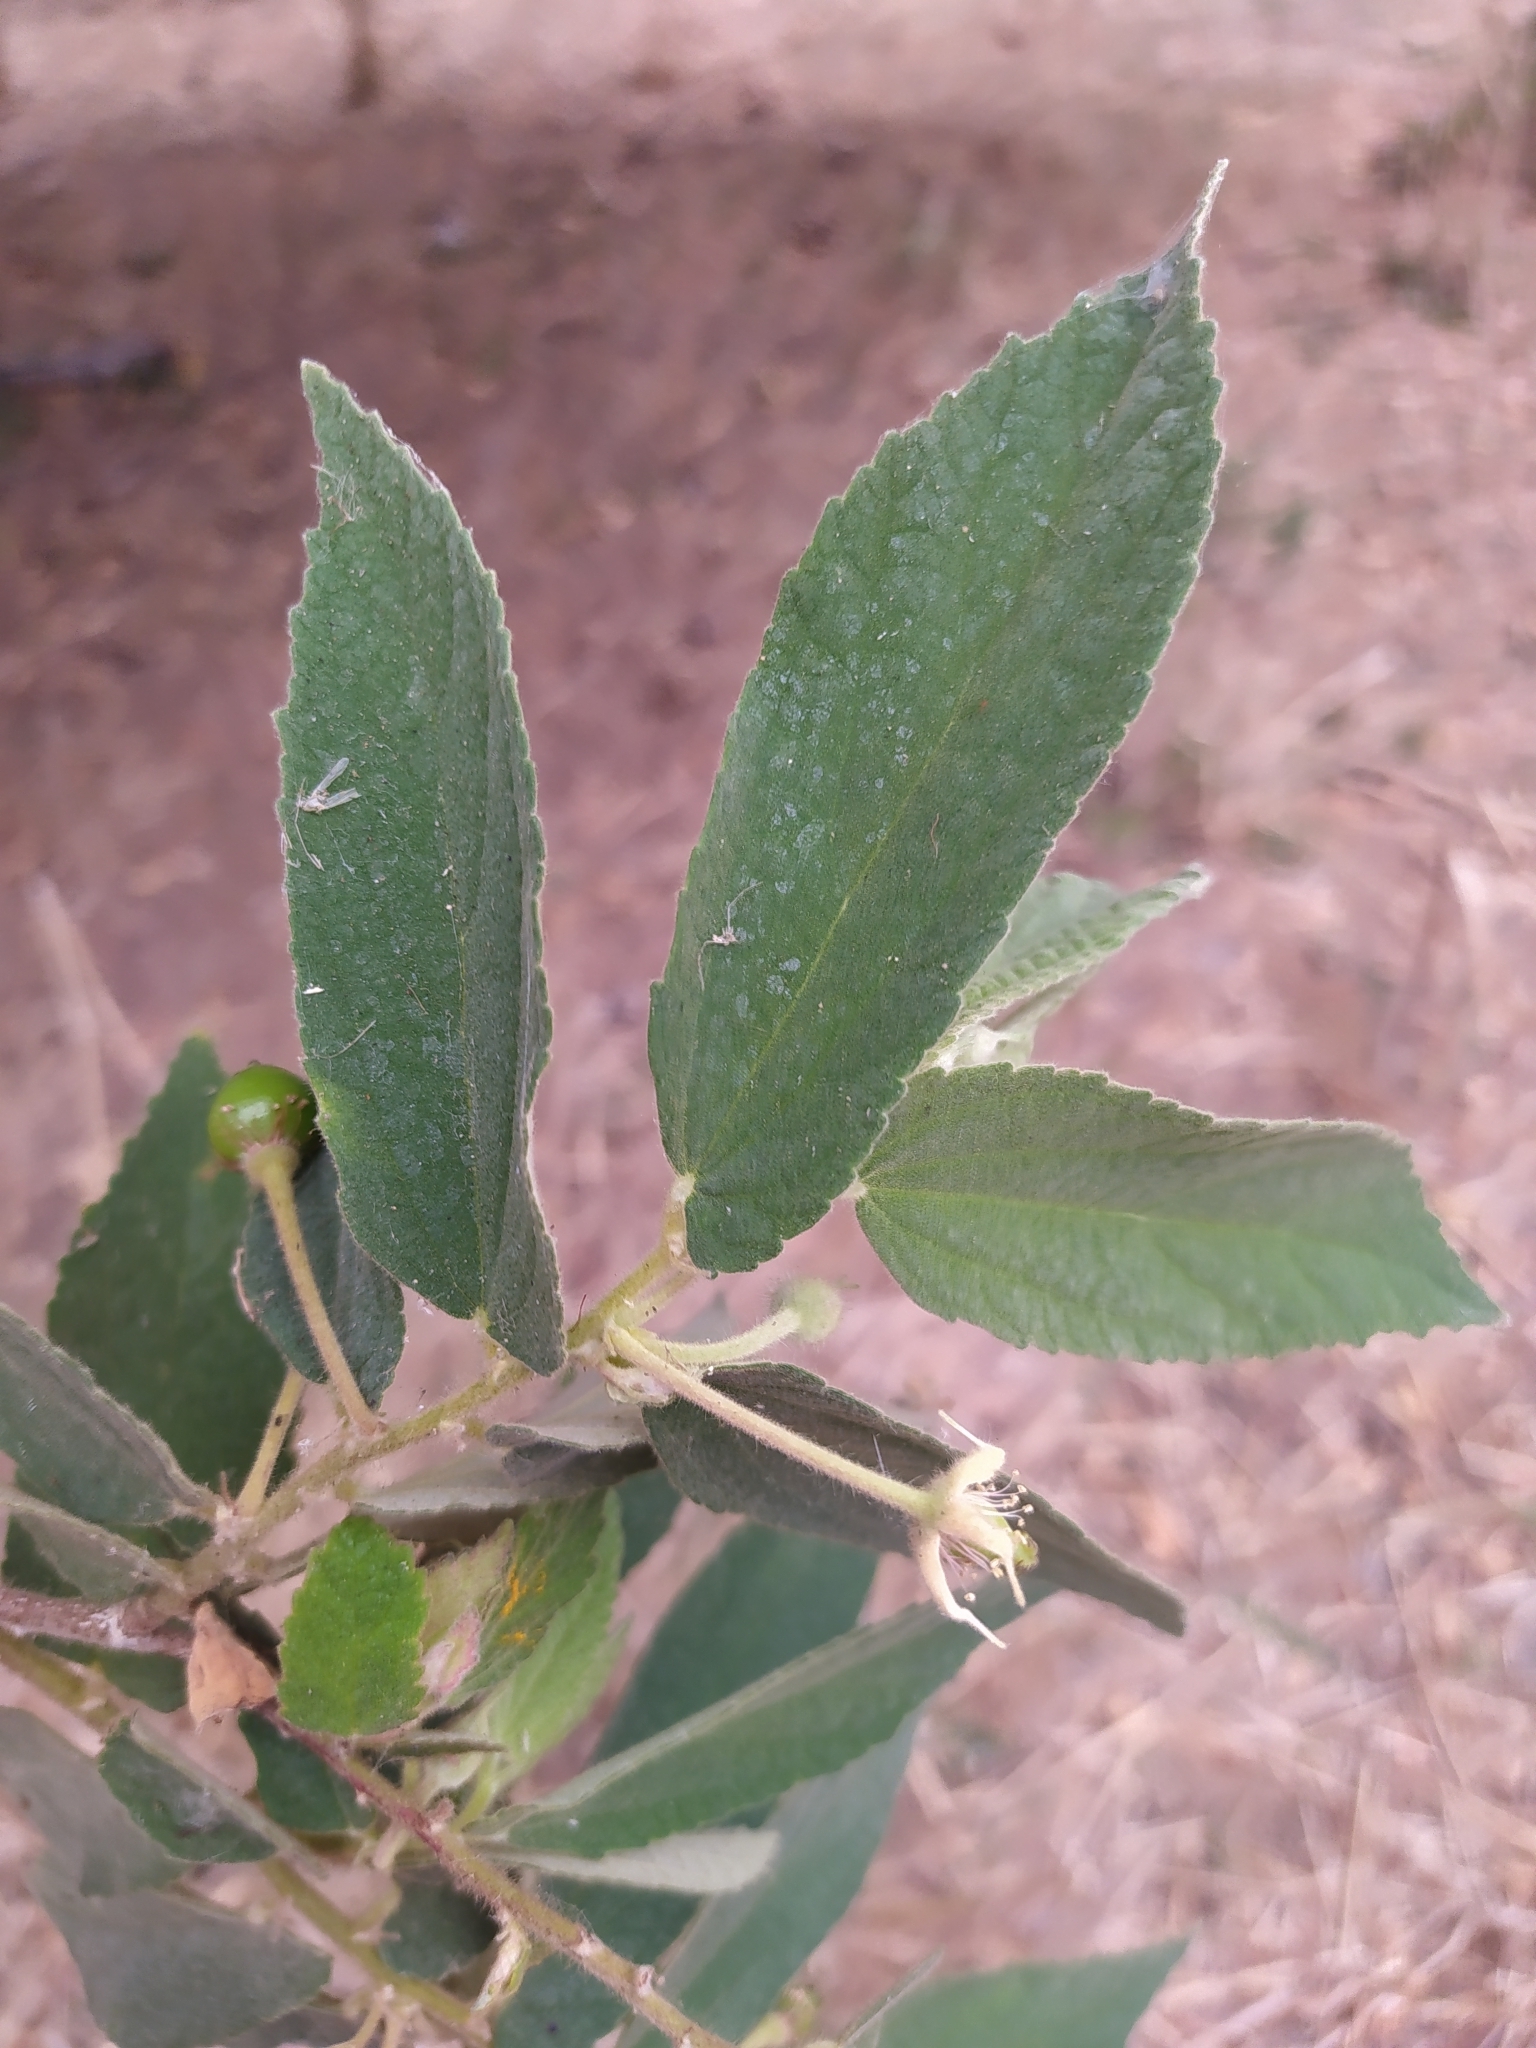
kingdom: Plantae
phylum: Tracheophyta
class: Magnoliopsida
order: Malvales
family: Muntingiaceae
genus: Muntingia
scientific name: Muntingia calabura
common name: Strawberrytree
